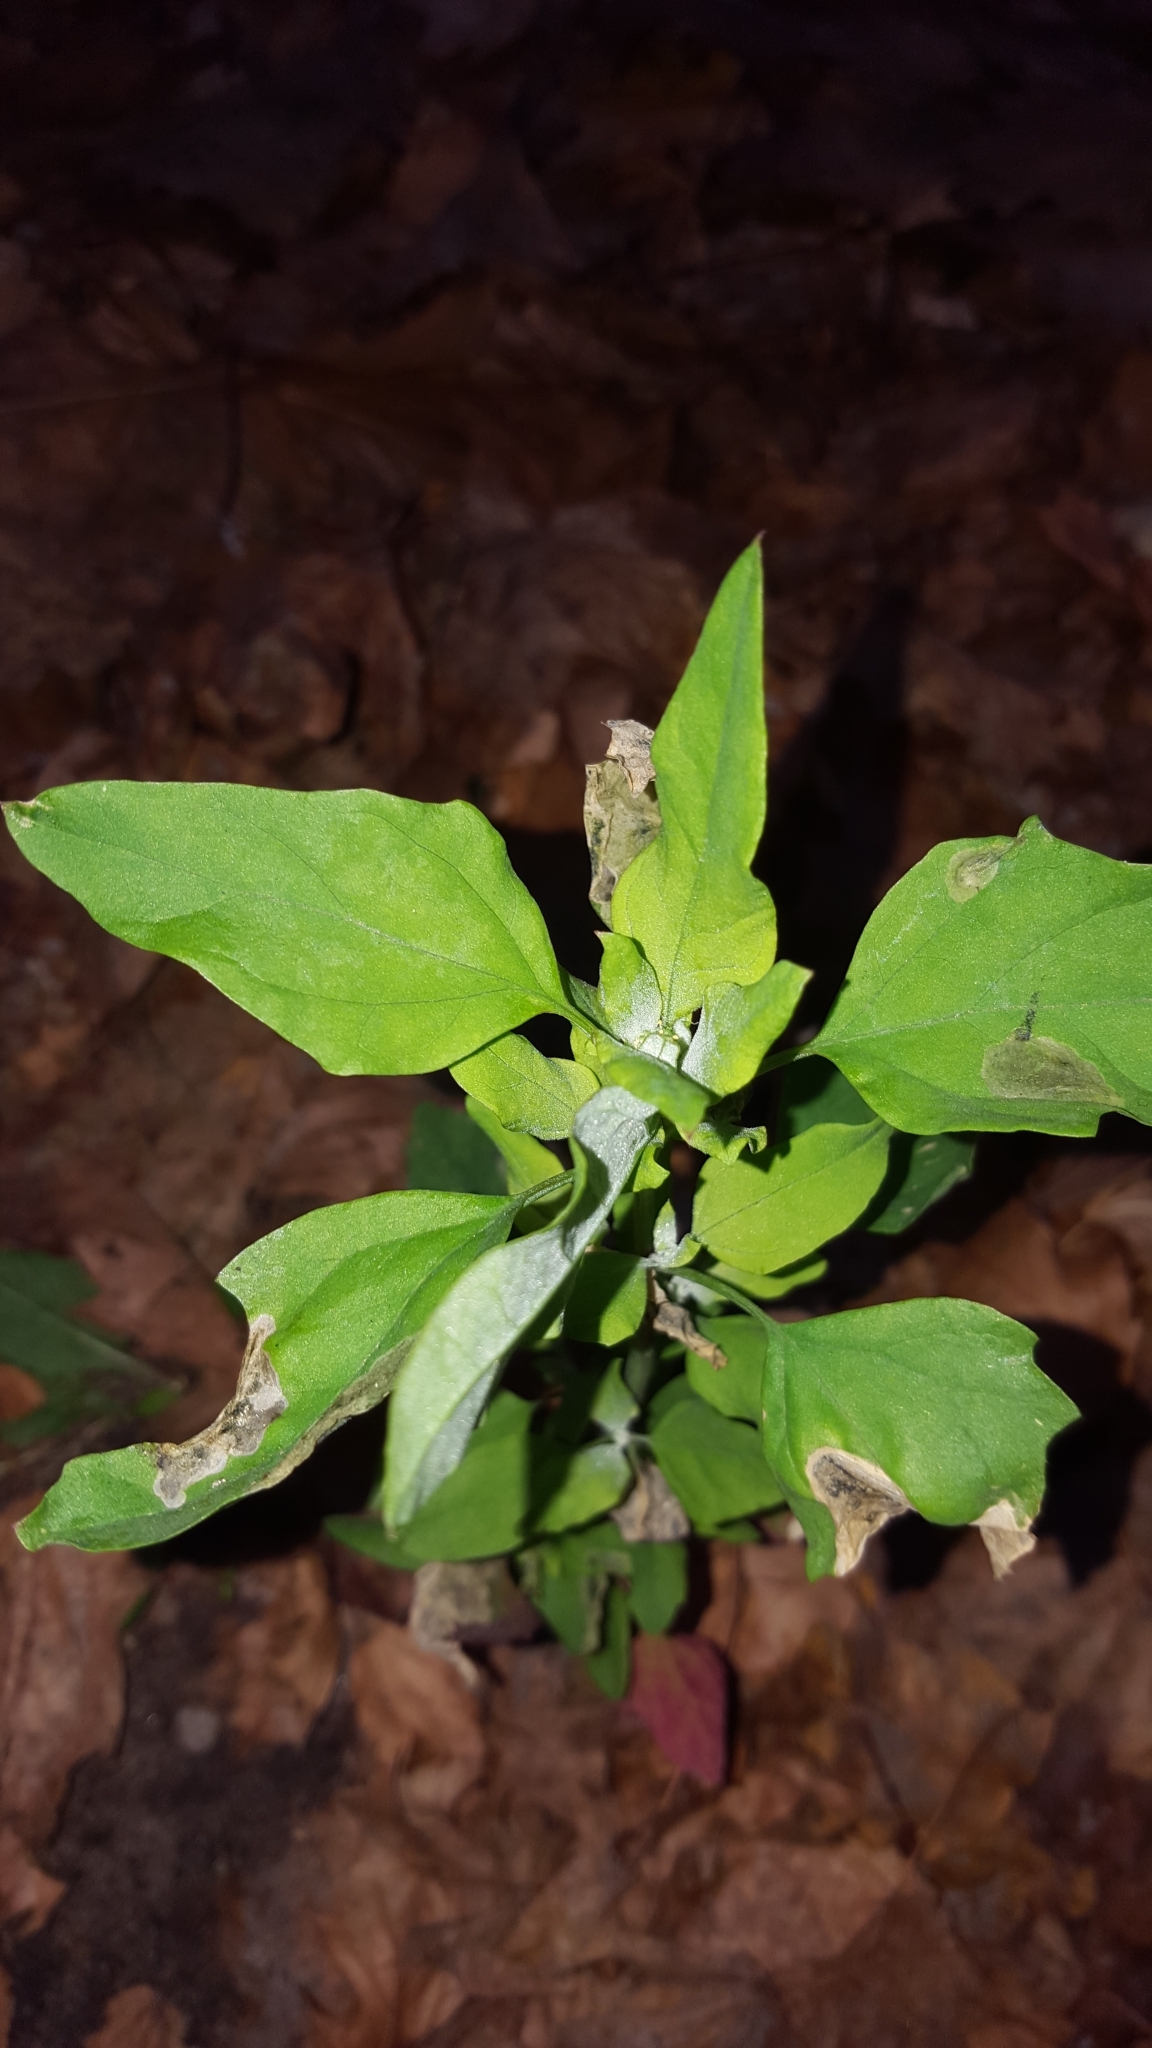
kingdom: Plantae
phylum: Tracheophyta
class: Magnoliopsida
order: Caryophyllales
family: Amaranthaceae
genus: Chenopodium
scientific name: Chenopodium album
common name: Fat-hen
